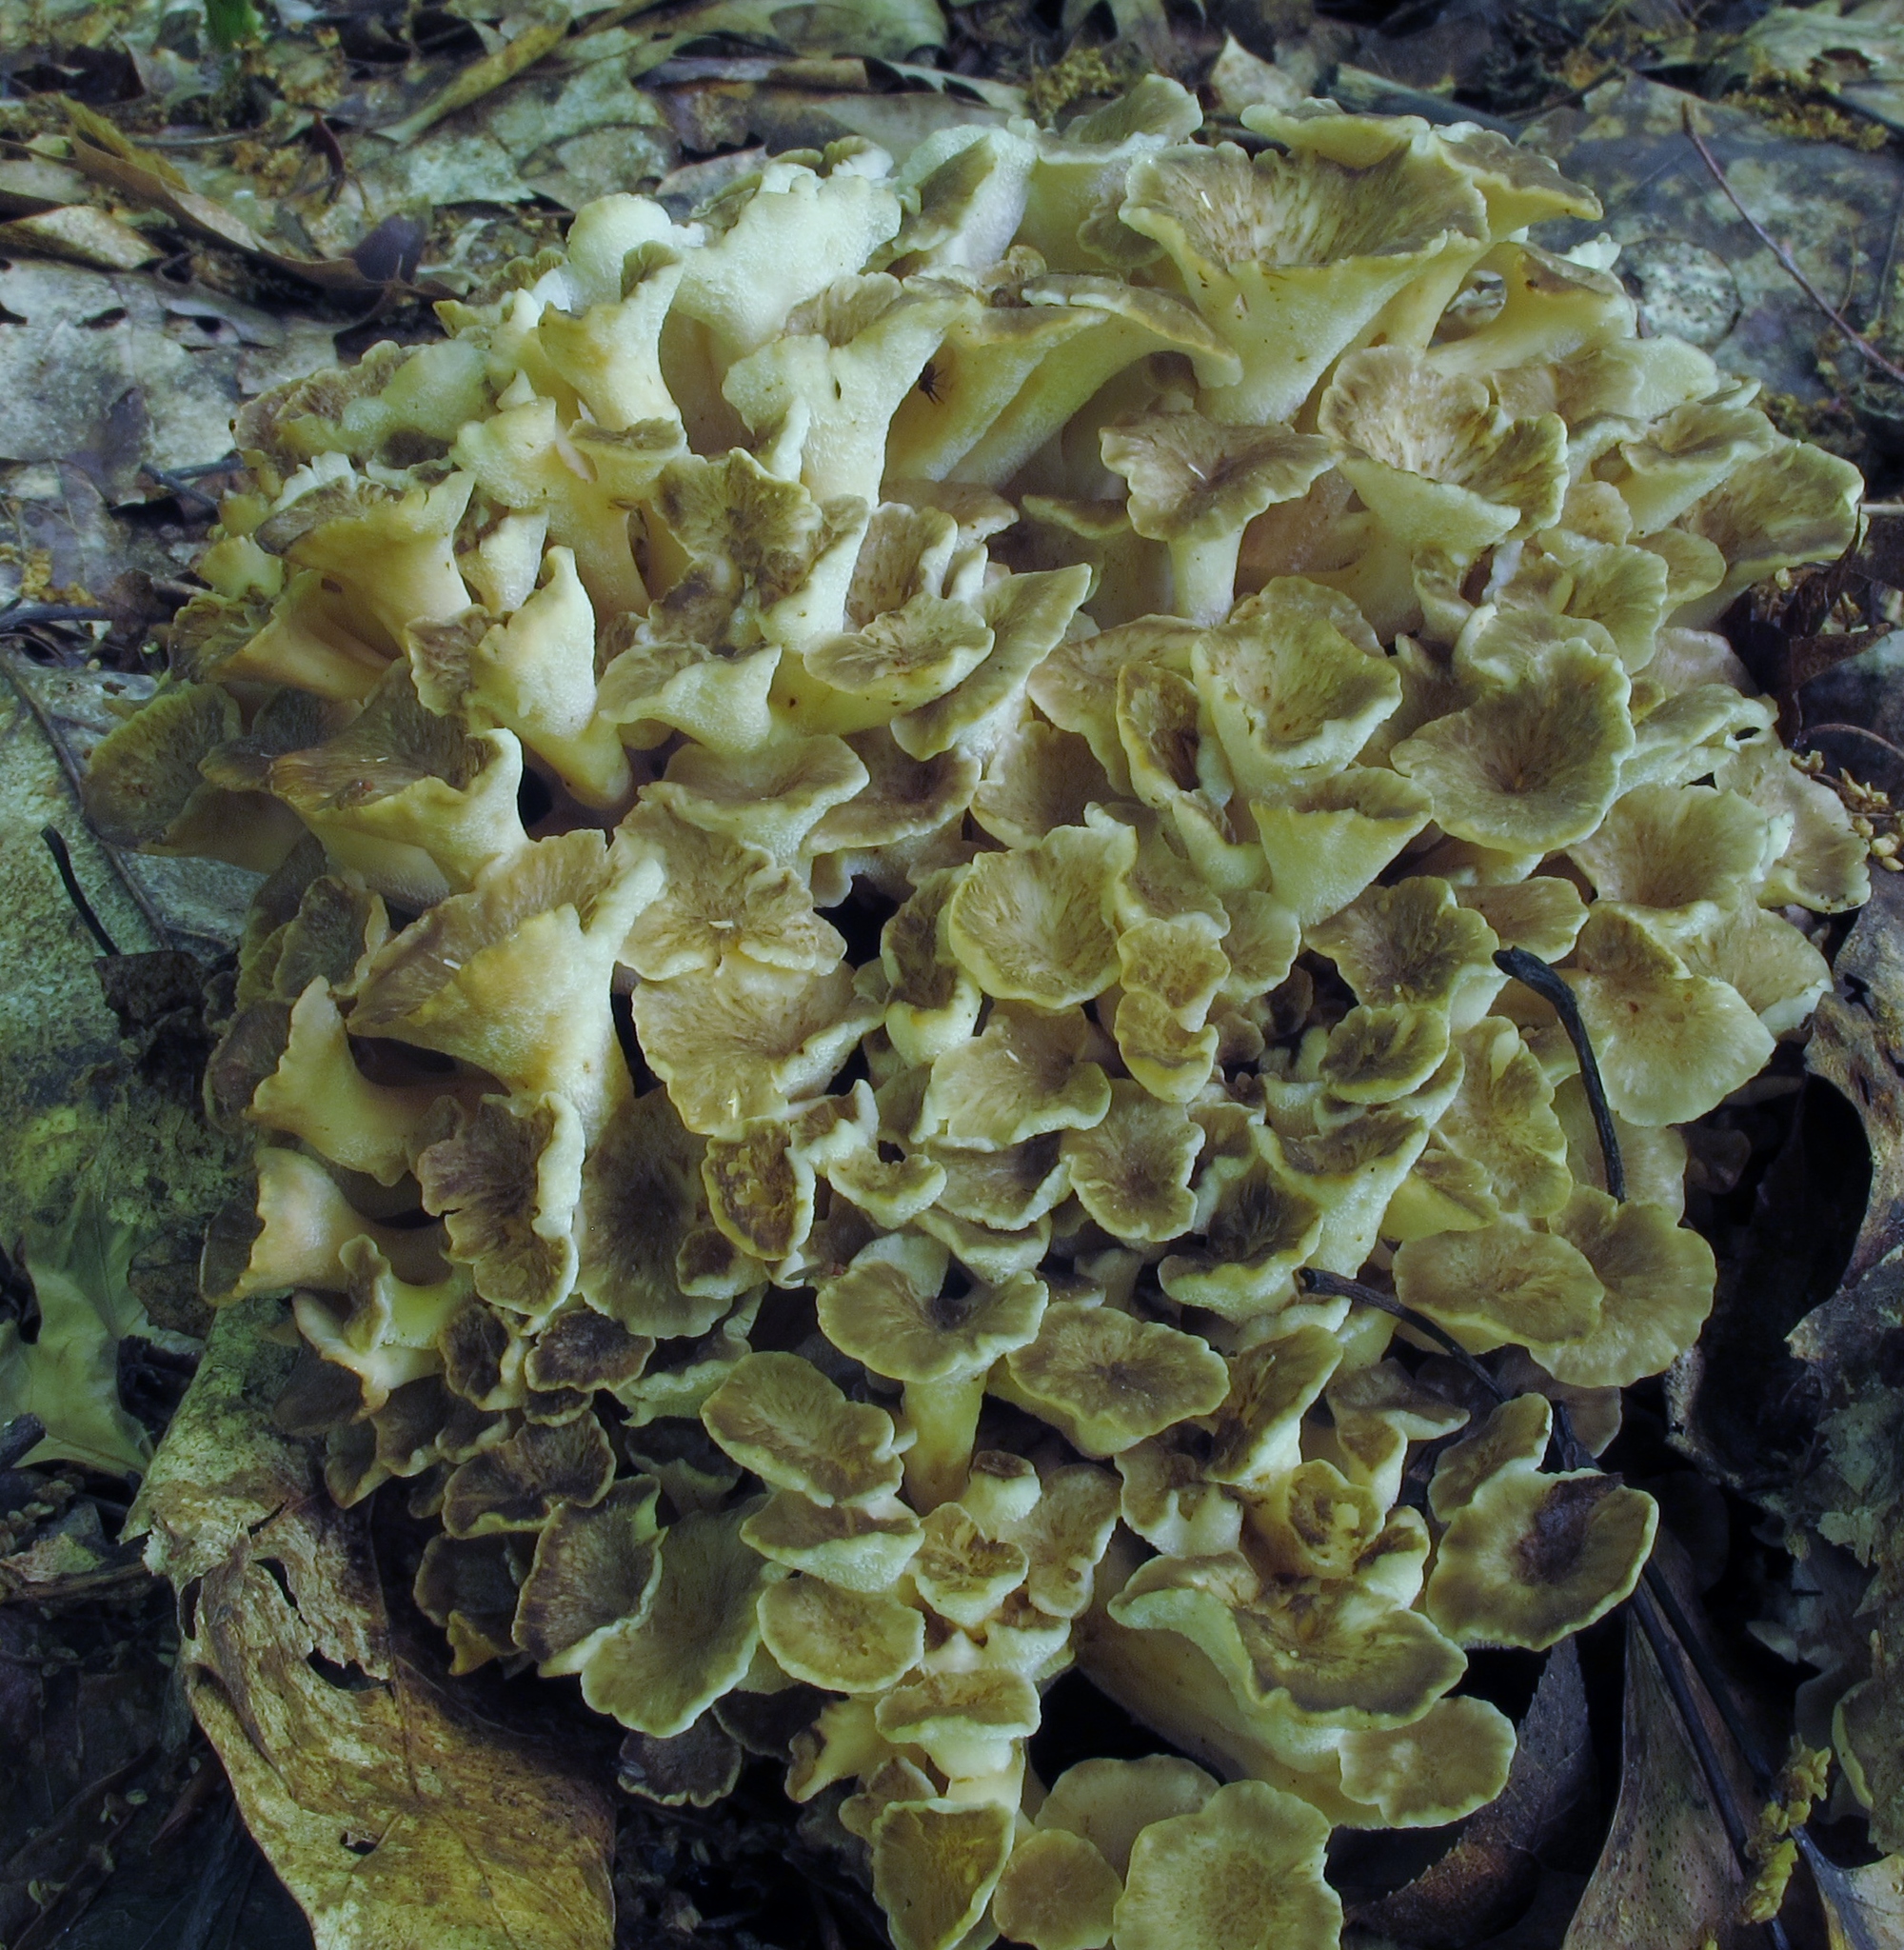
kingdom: Fungi
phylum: Basidiomycota
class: Agaricomycetes
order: Polyporales
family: Polyporaceae
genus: Polyporus
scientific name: Polyporus umbellatus
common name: Umbrella polypore
